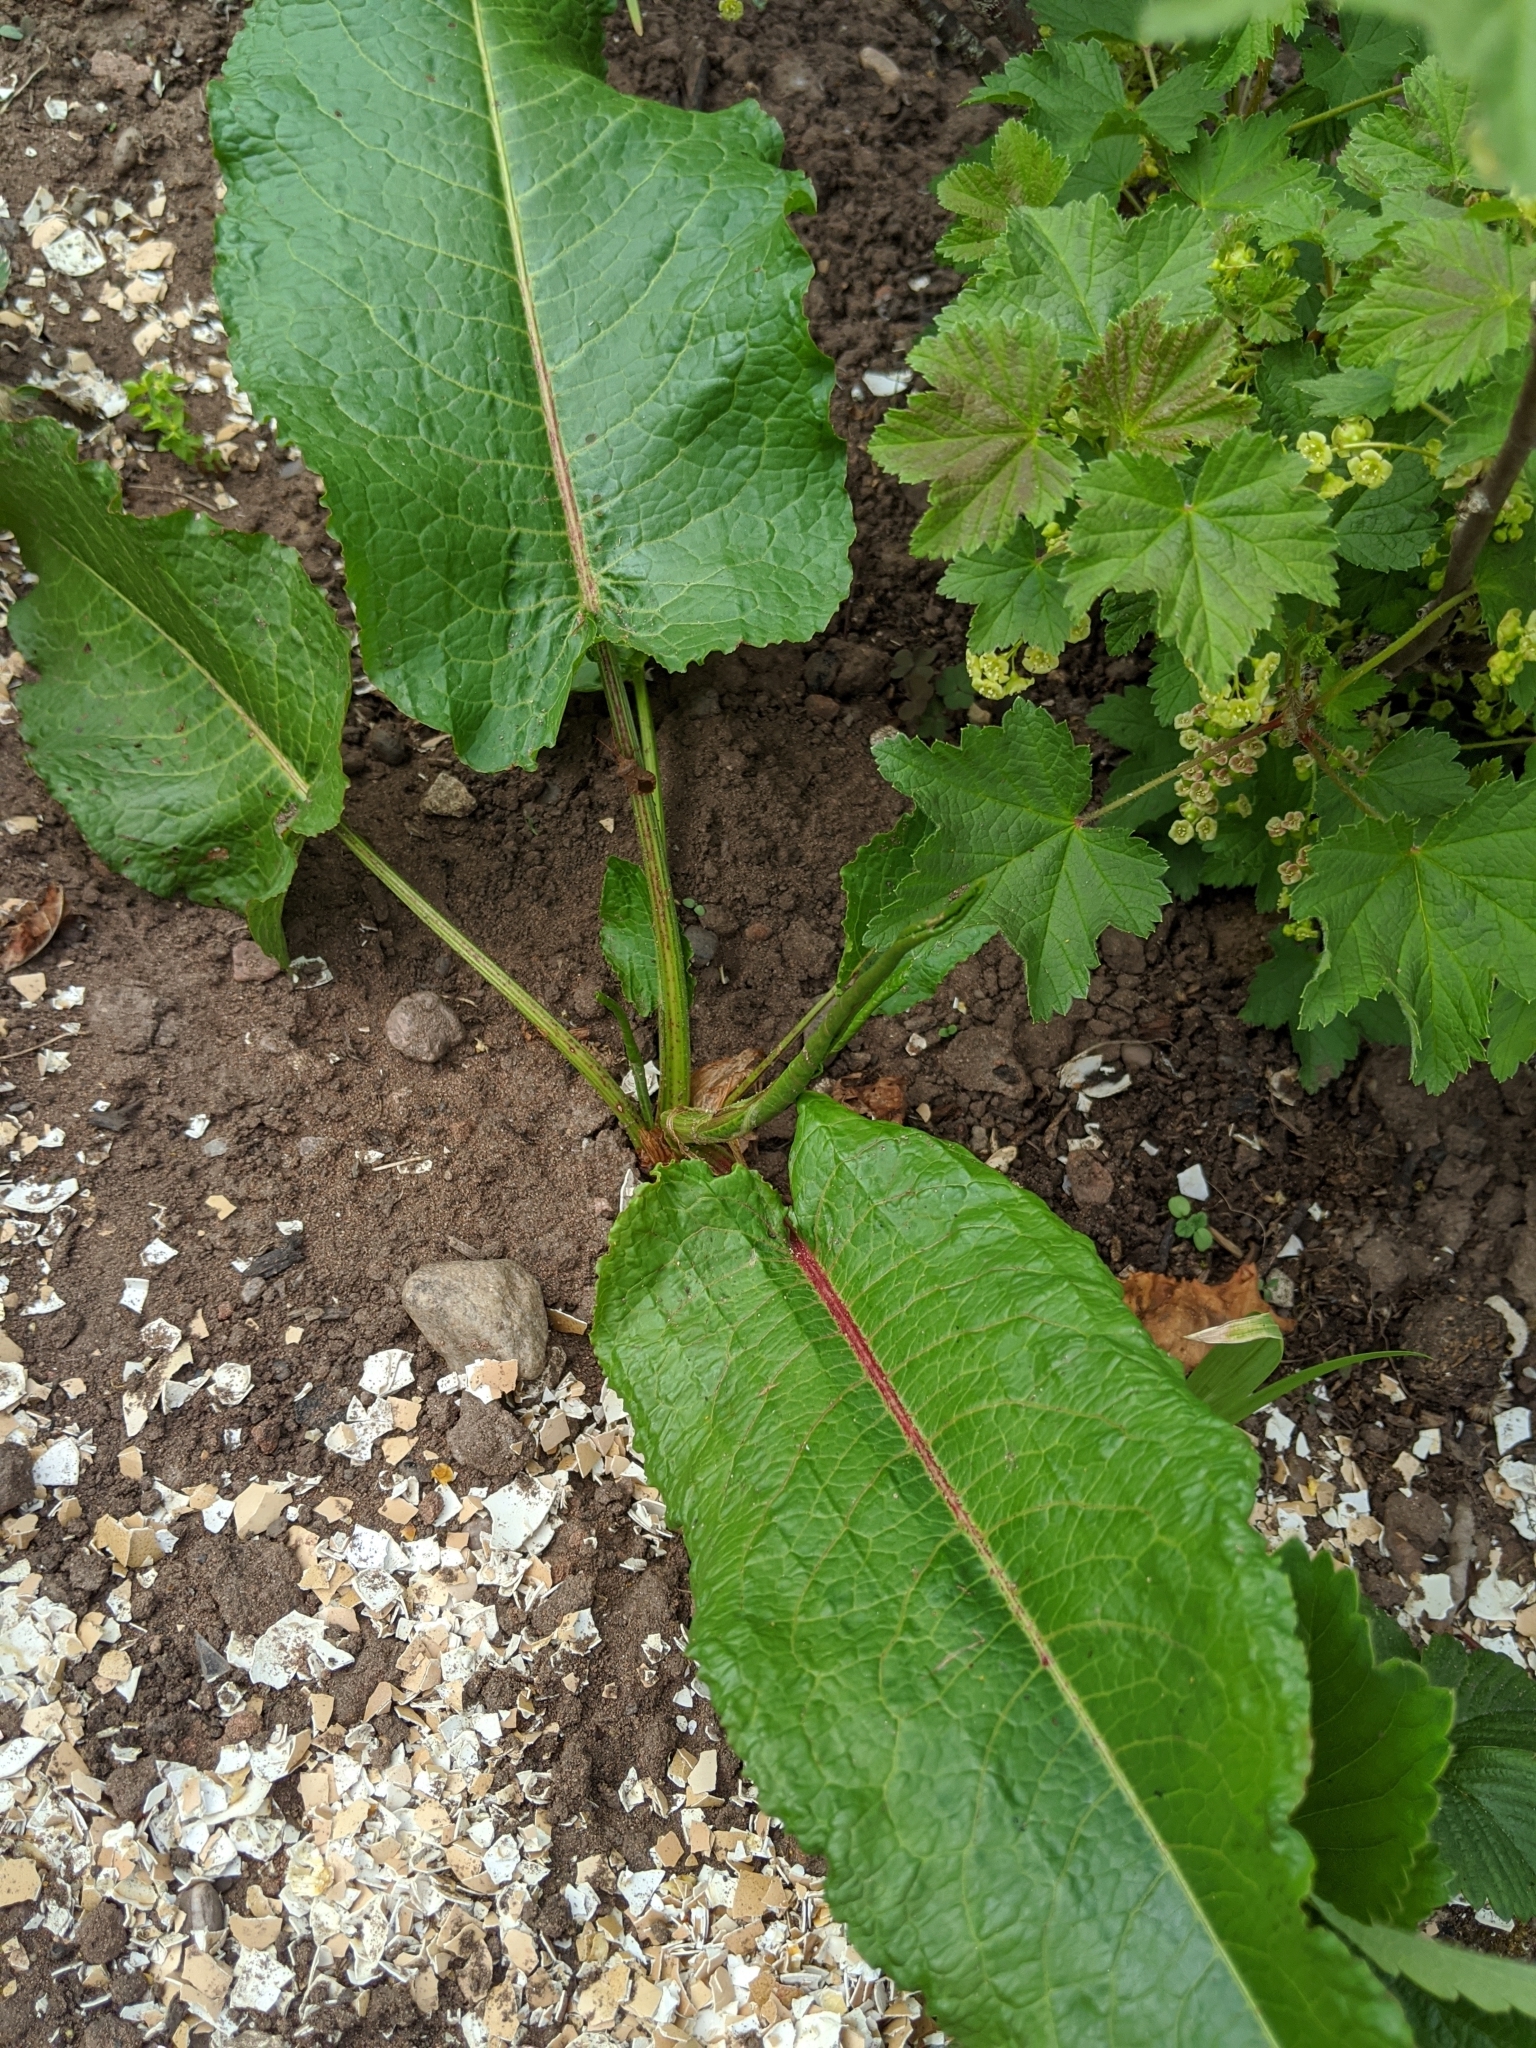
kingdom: Plantae
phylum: Tracheophyta
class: Magnoliopsida
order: Caryophyllales
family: Polygonaceae
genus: Rumex
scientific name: Rumex obtusifolius
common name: Bitter dock
